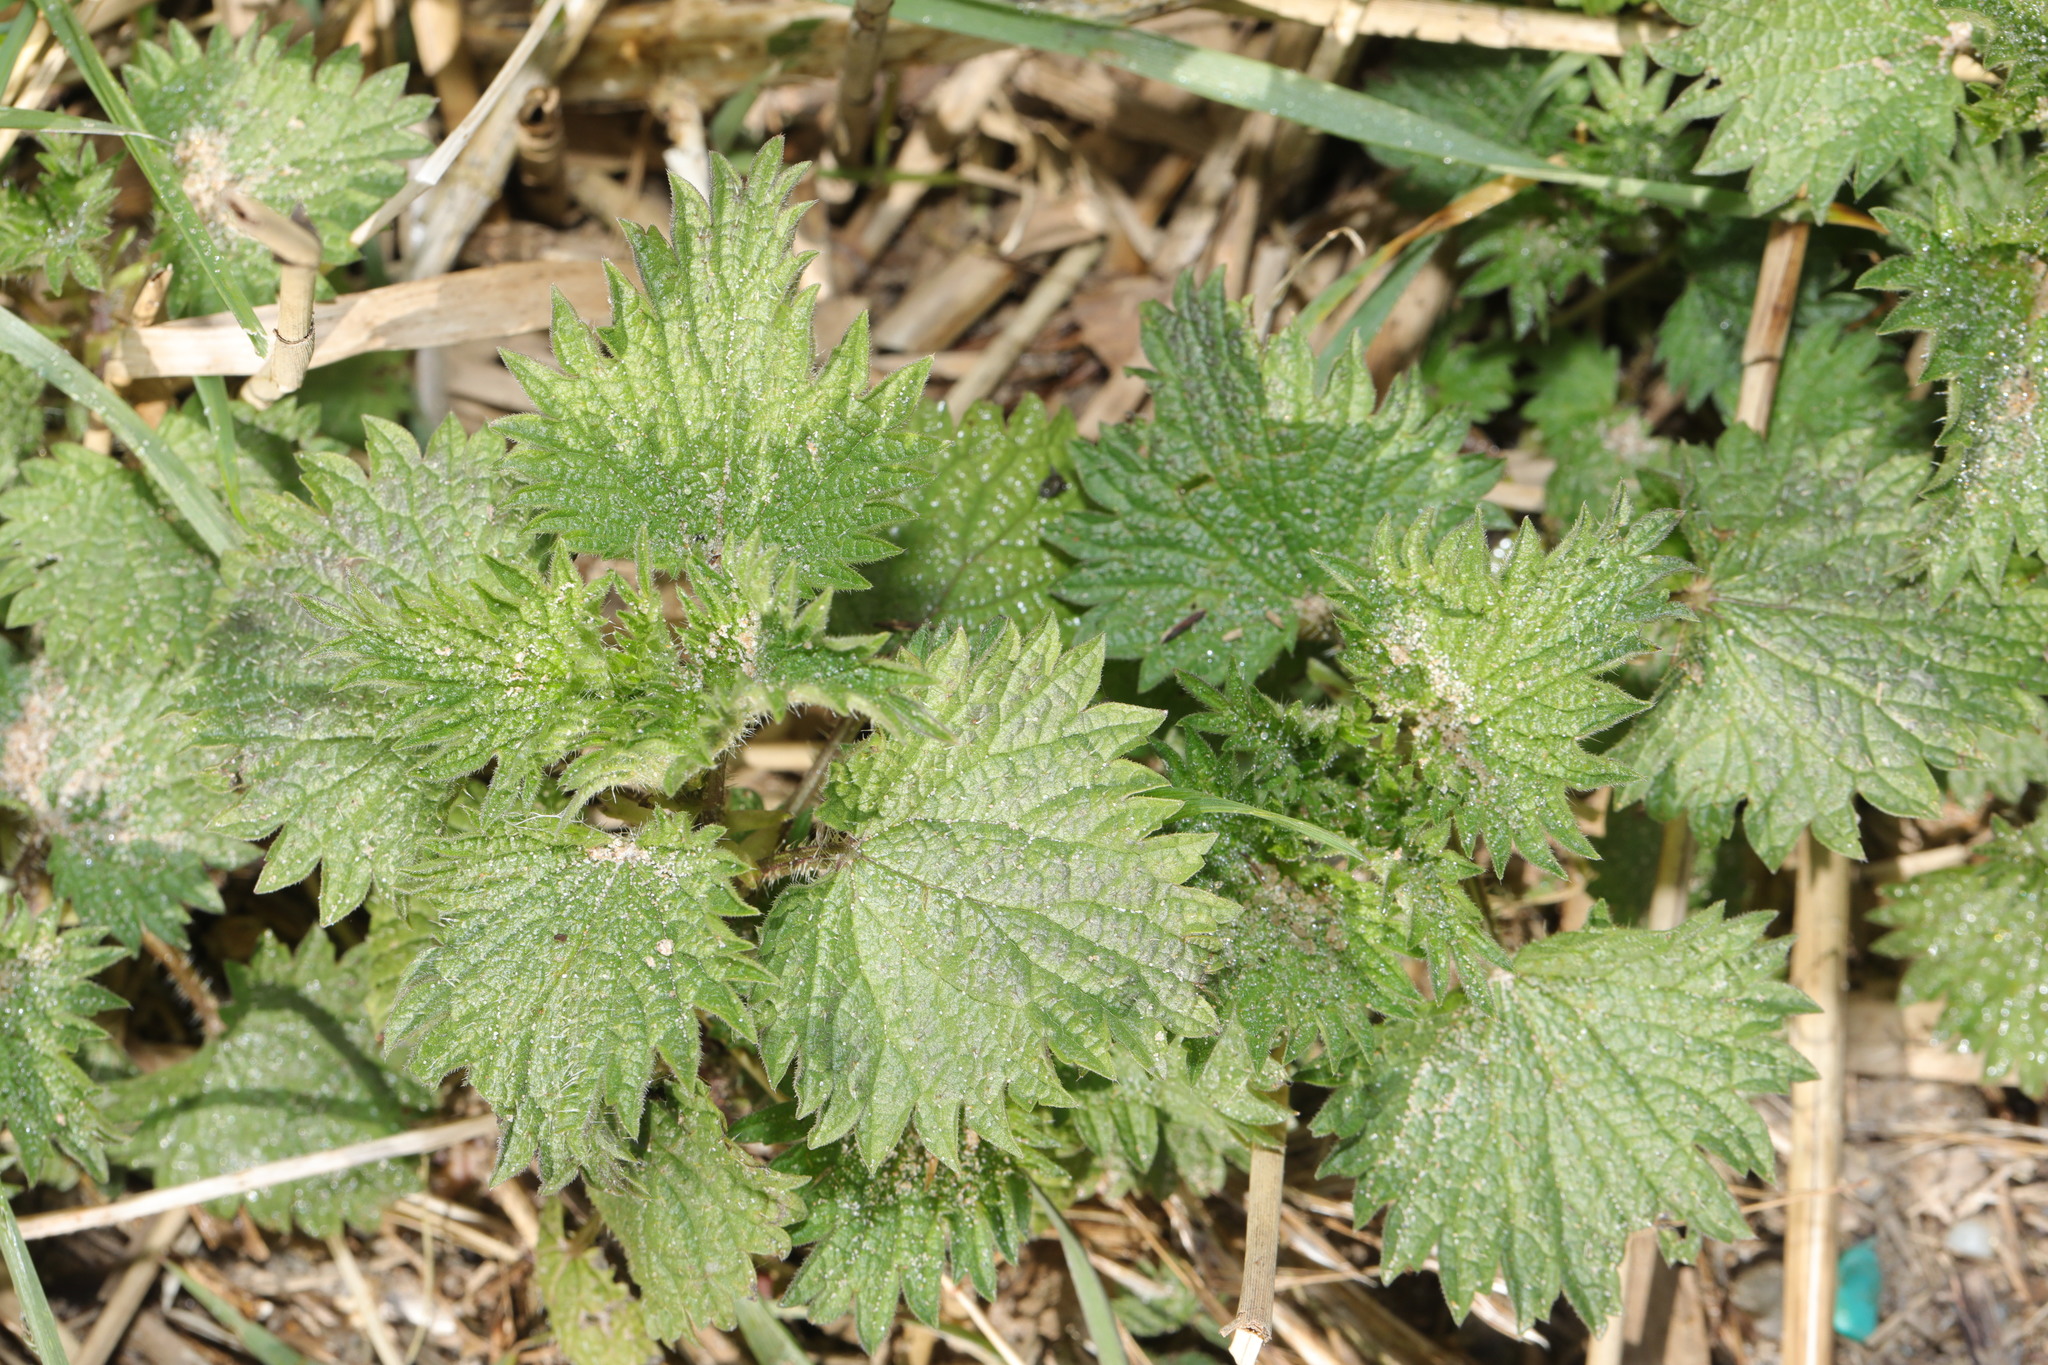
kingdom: Plantae
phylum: Tracheophyta
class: Magnoliopsida
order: Rosales
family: Urticaceae
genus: Urtica
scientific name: Urtica dioica
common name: Common nettle
